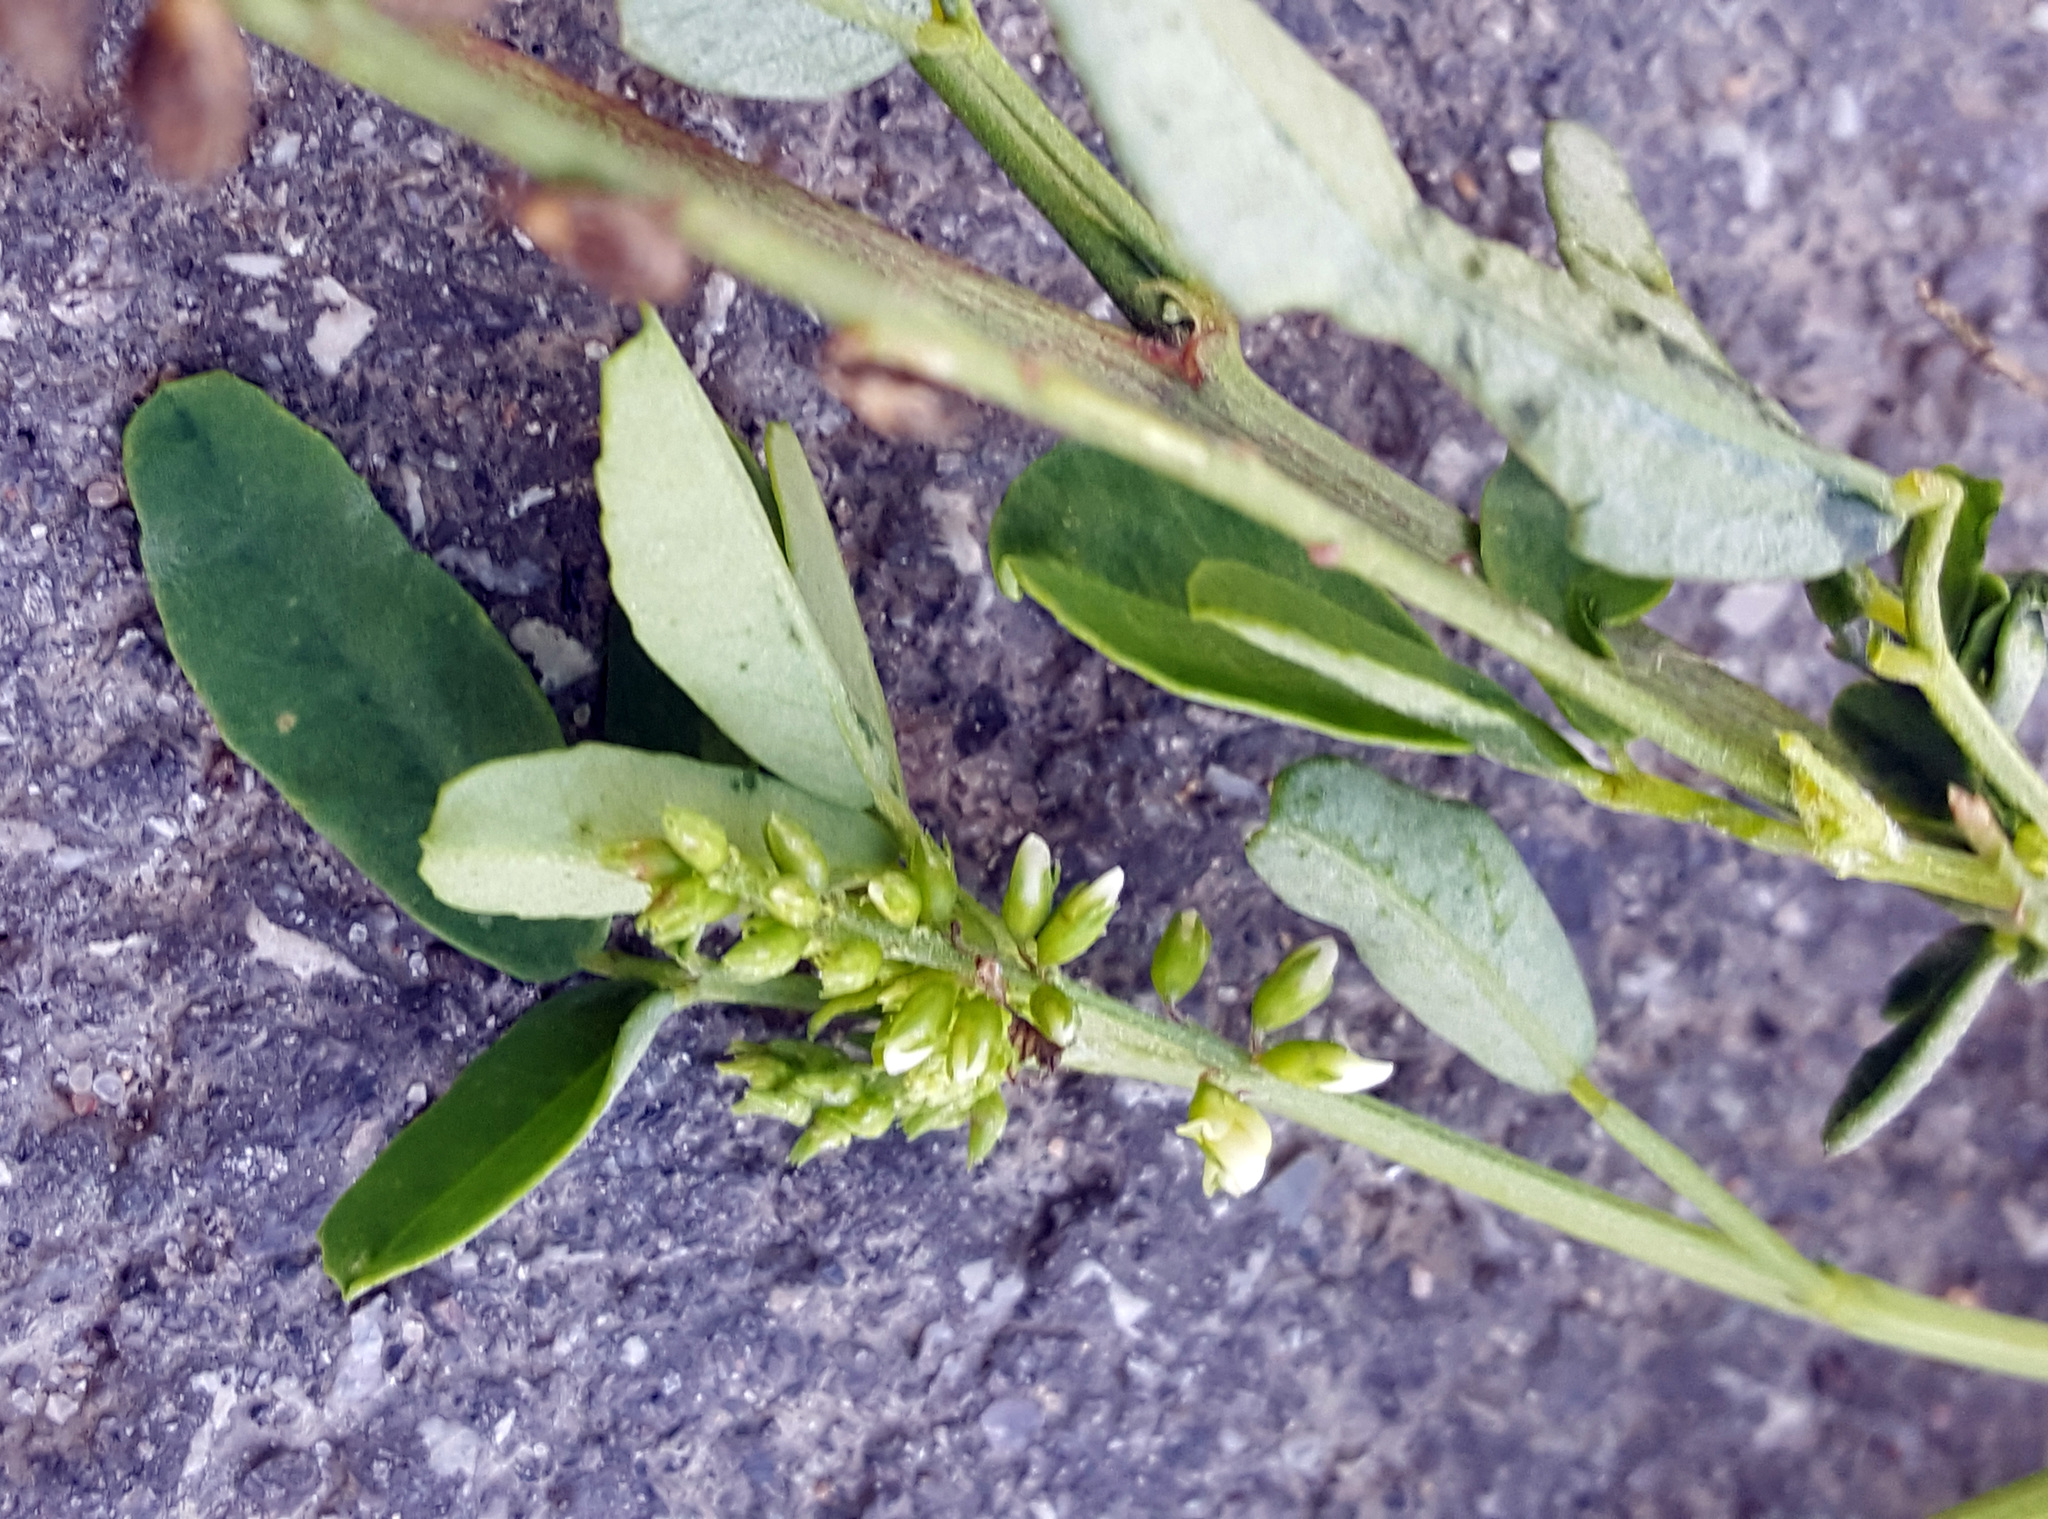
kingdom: Plantae
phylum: Tracheophyta
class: Magnoliopsida
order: Fabales
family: Fabaceae
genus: Melilotus
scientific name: Melilotus albus
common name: White melilot
